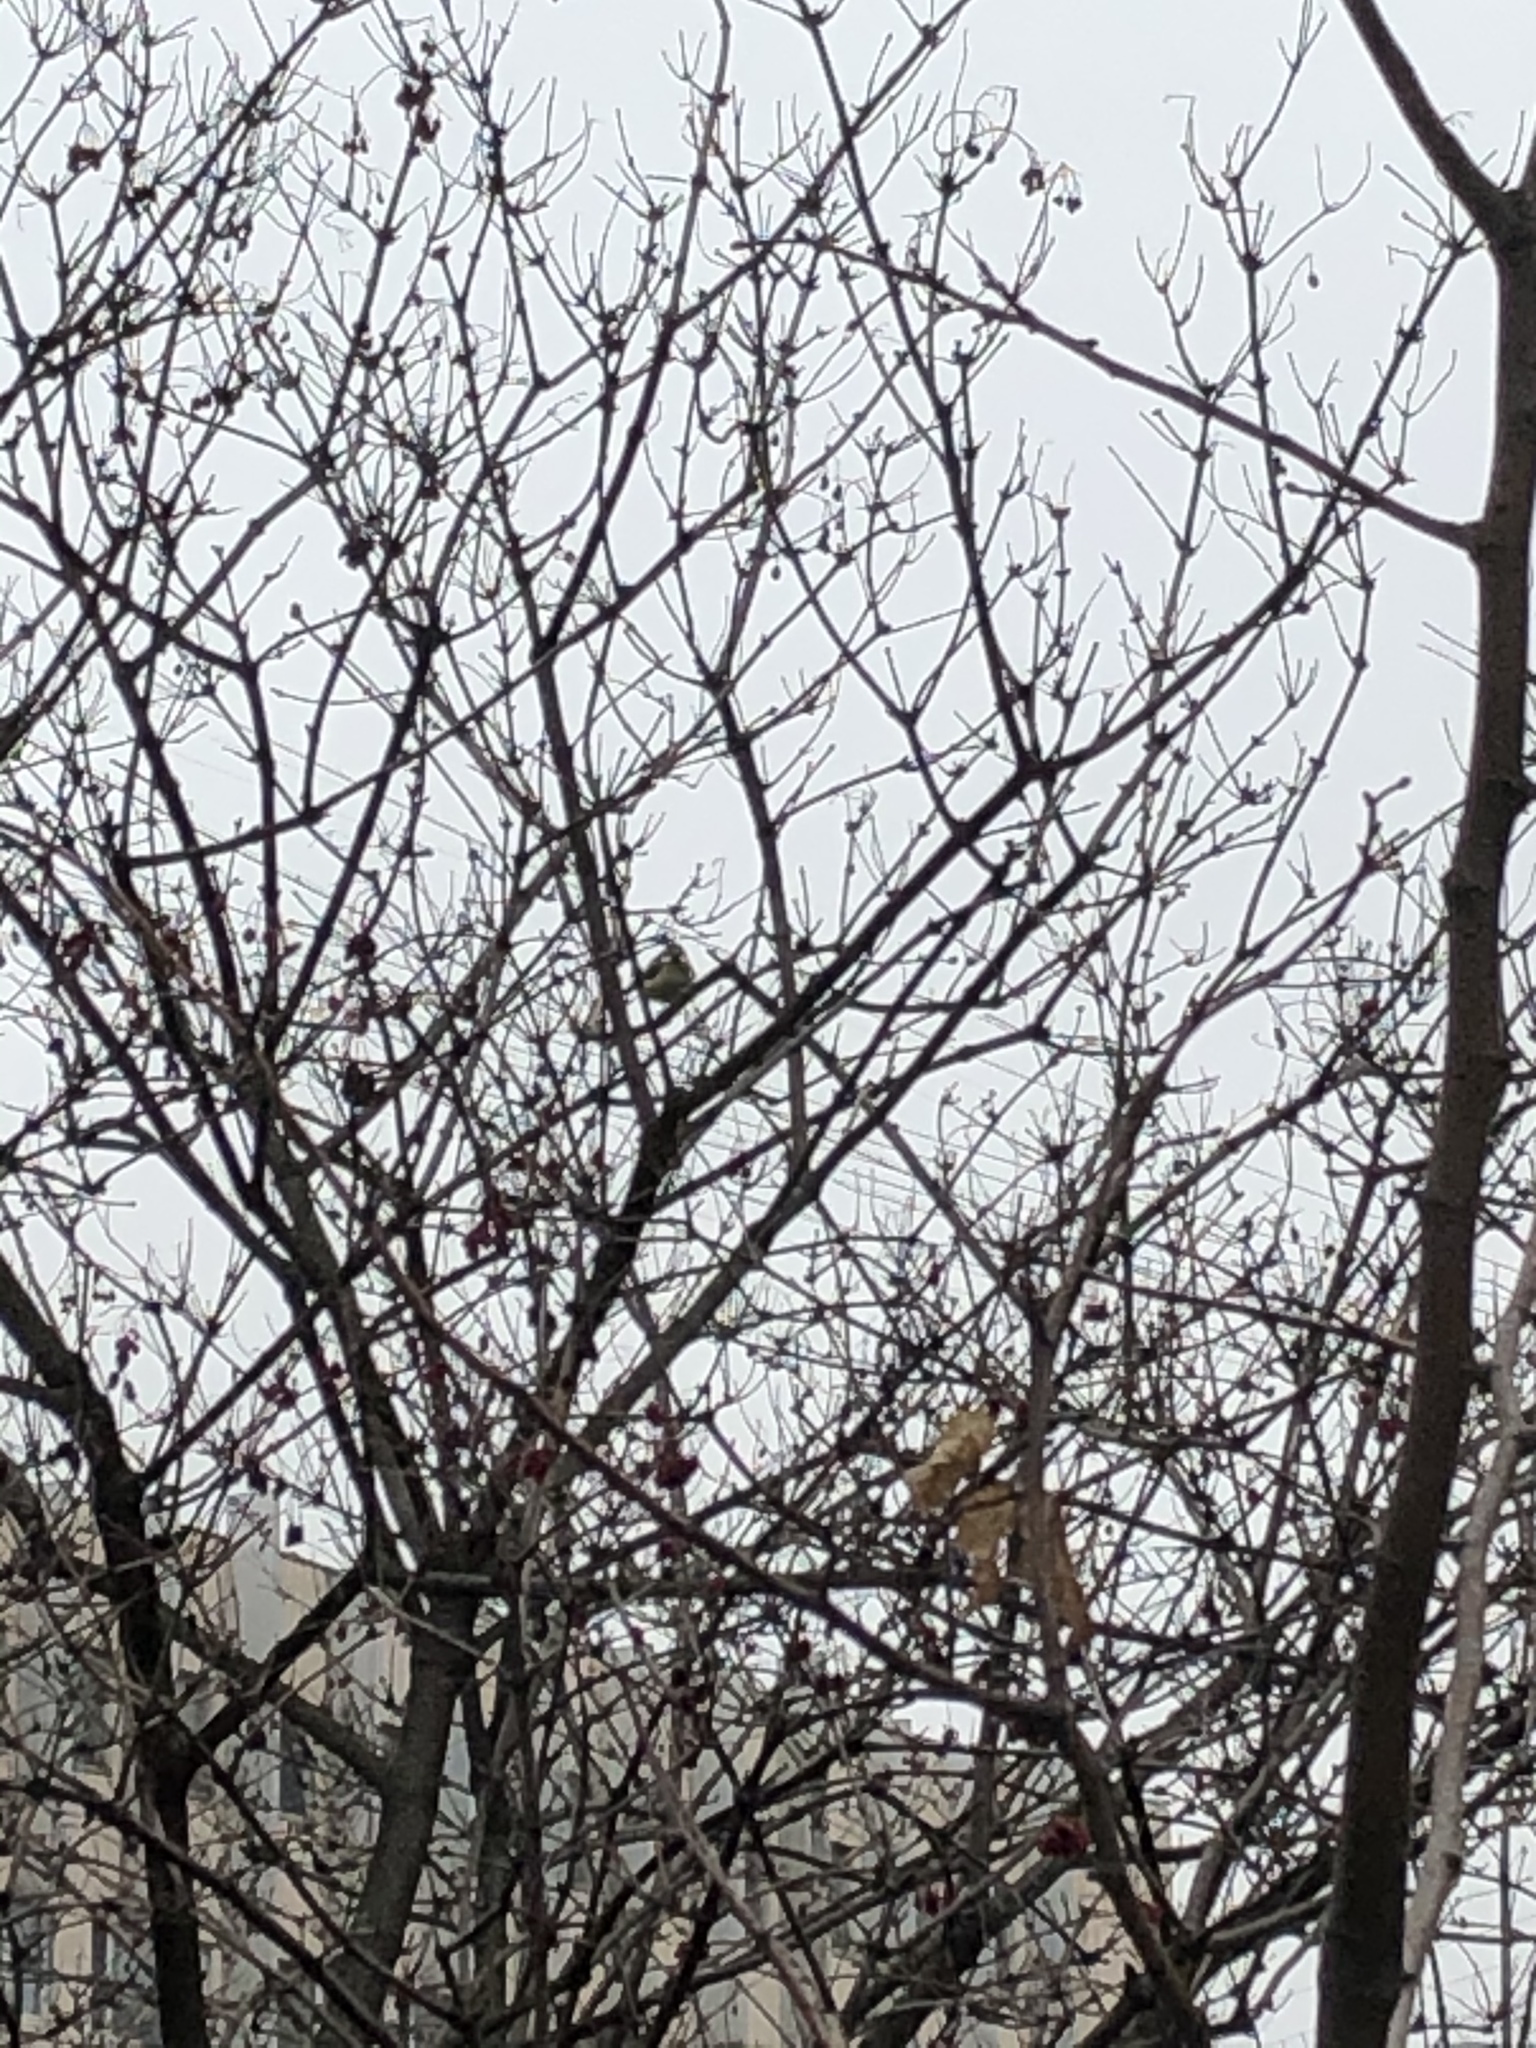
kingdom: Animalia
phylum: Chordata
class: Aves
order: Passeriformes
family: Paridae
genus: Cyanistes
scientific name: Cyanistes caeruleus
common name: Eurasian blue tit
